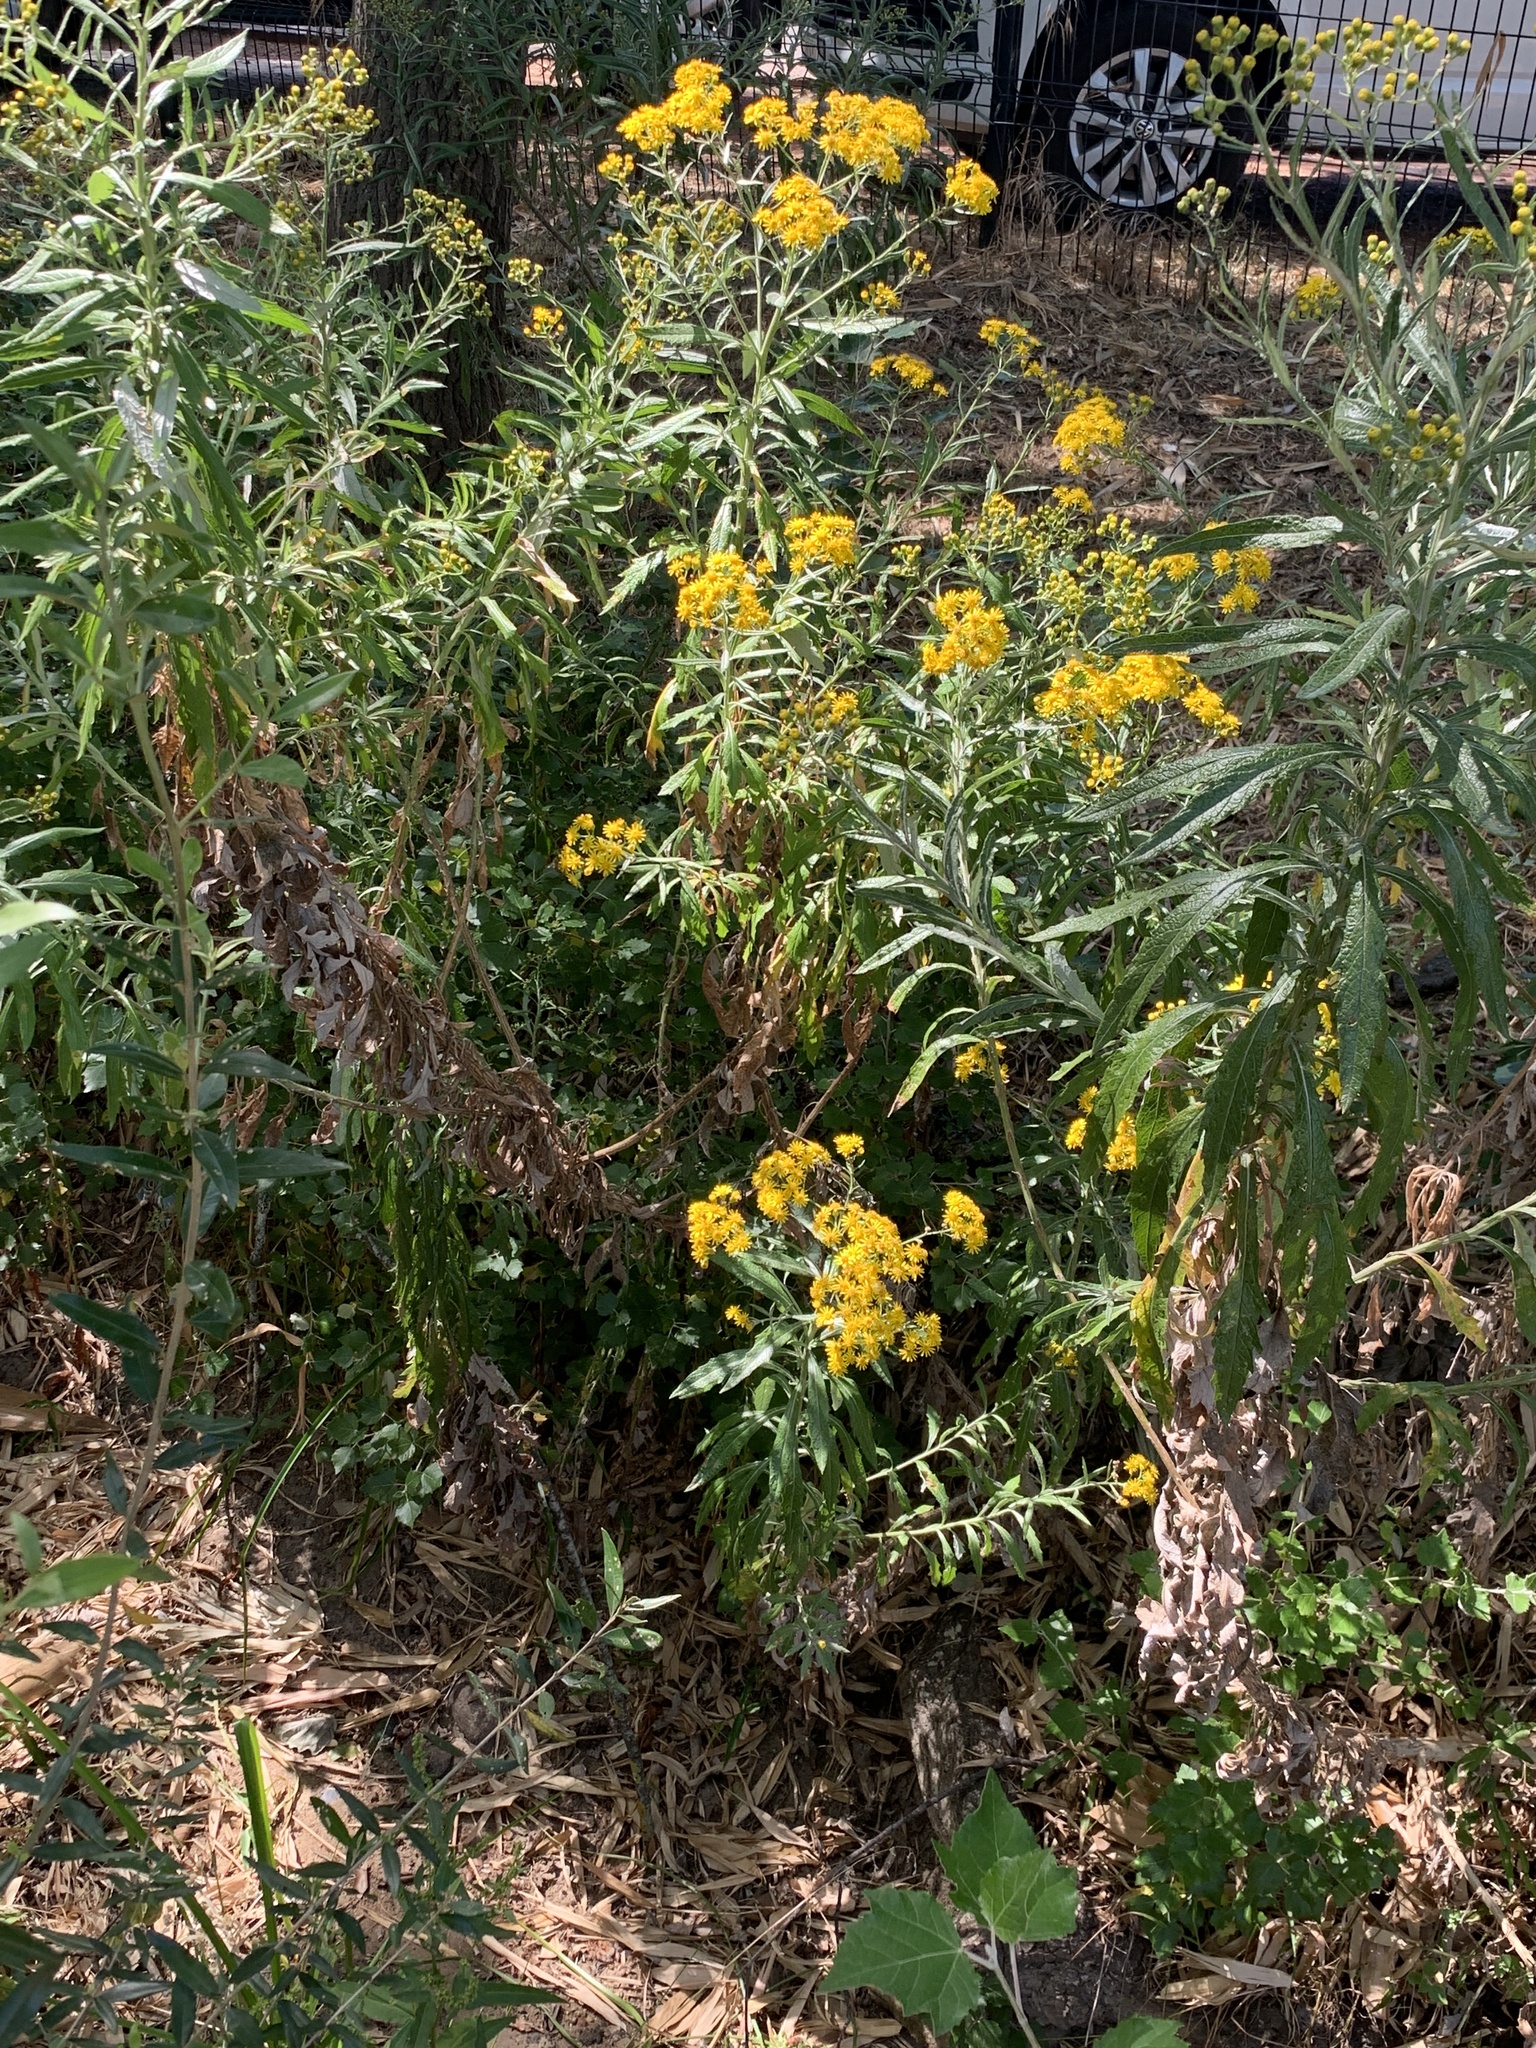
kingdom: Plantae
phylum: Tracheophyta
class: Magnoliopsida
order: Asterales
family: Asteraceae
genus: Senecio
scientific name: Senecio pterophorus
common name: Shoddy ragwort
